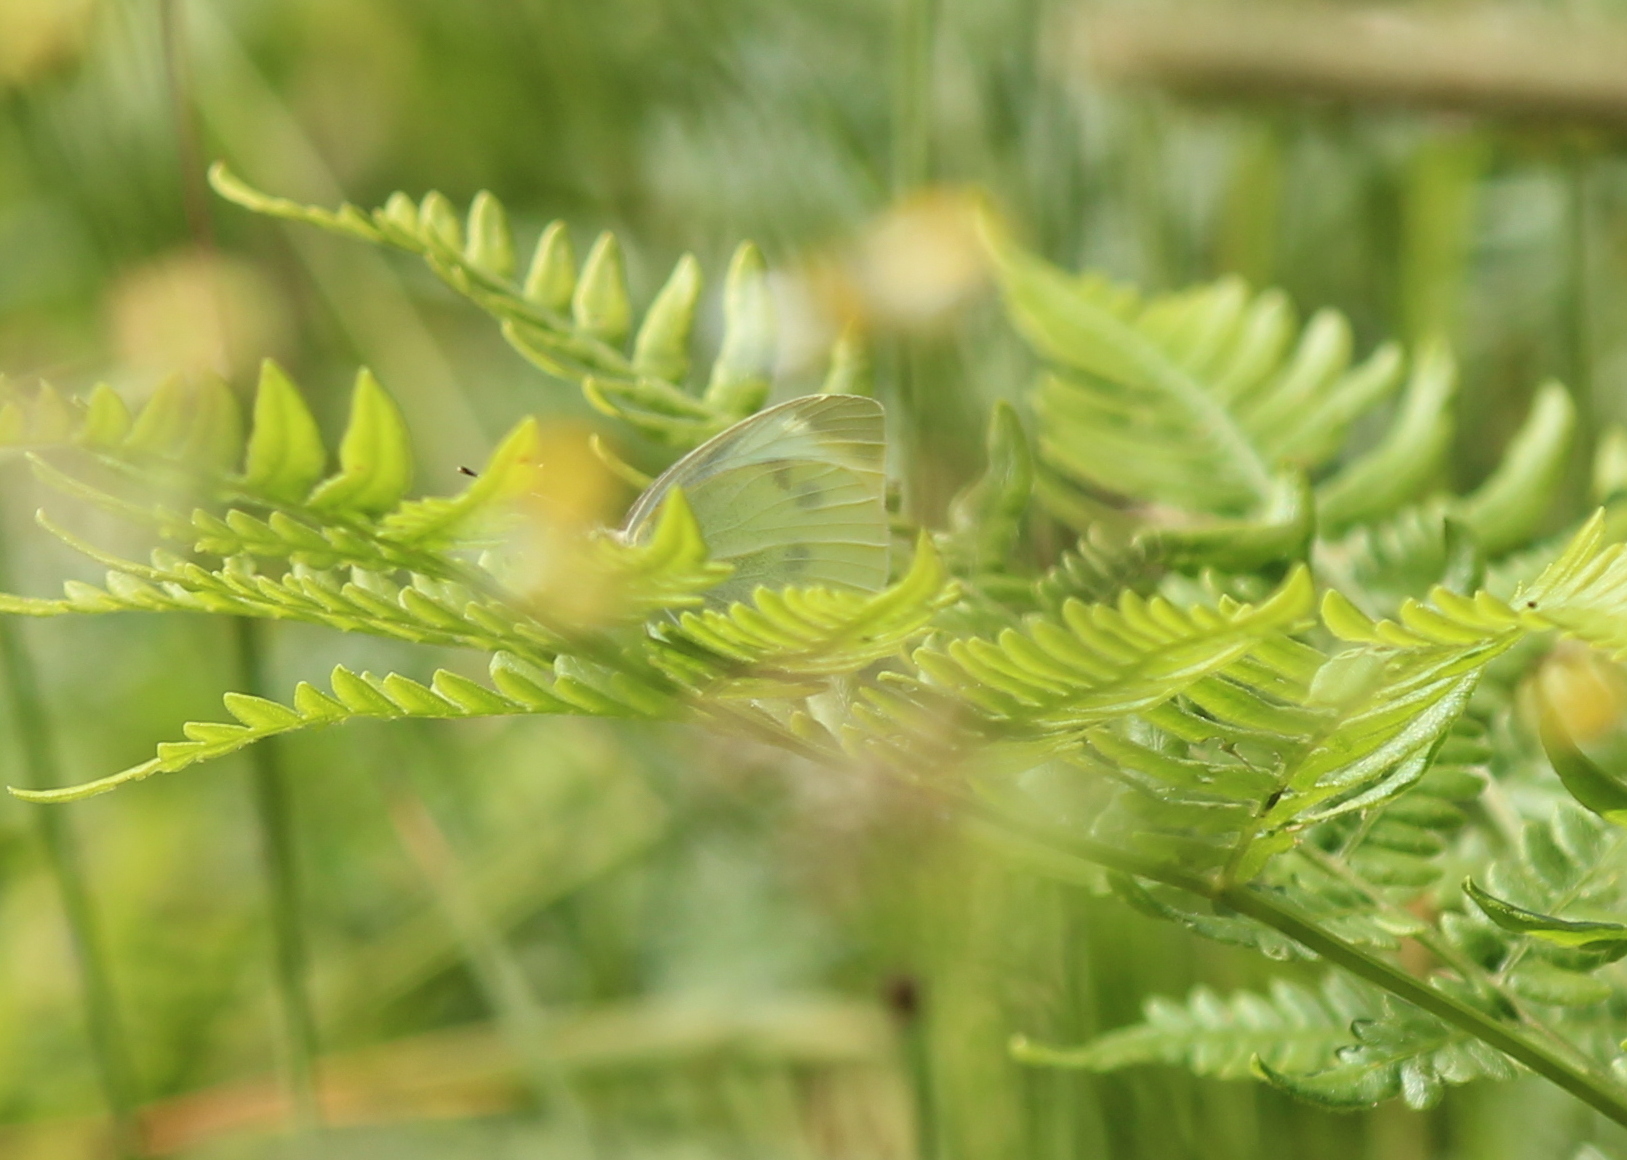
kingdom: Animalia
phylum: Arthropoda
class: Insecta
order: Lepidoptera
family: Pieridae
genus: Pieris
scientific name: Pieris rapae
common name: Small white
